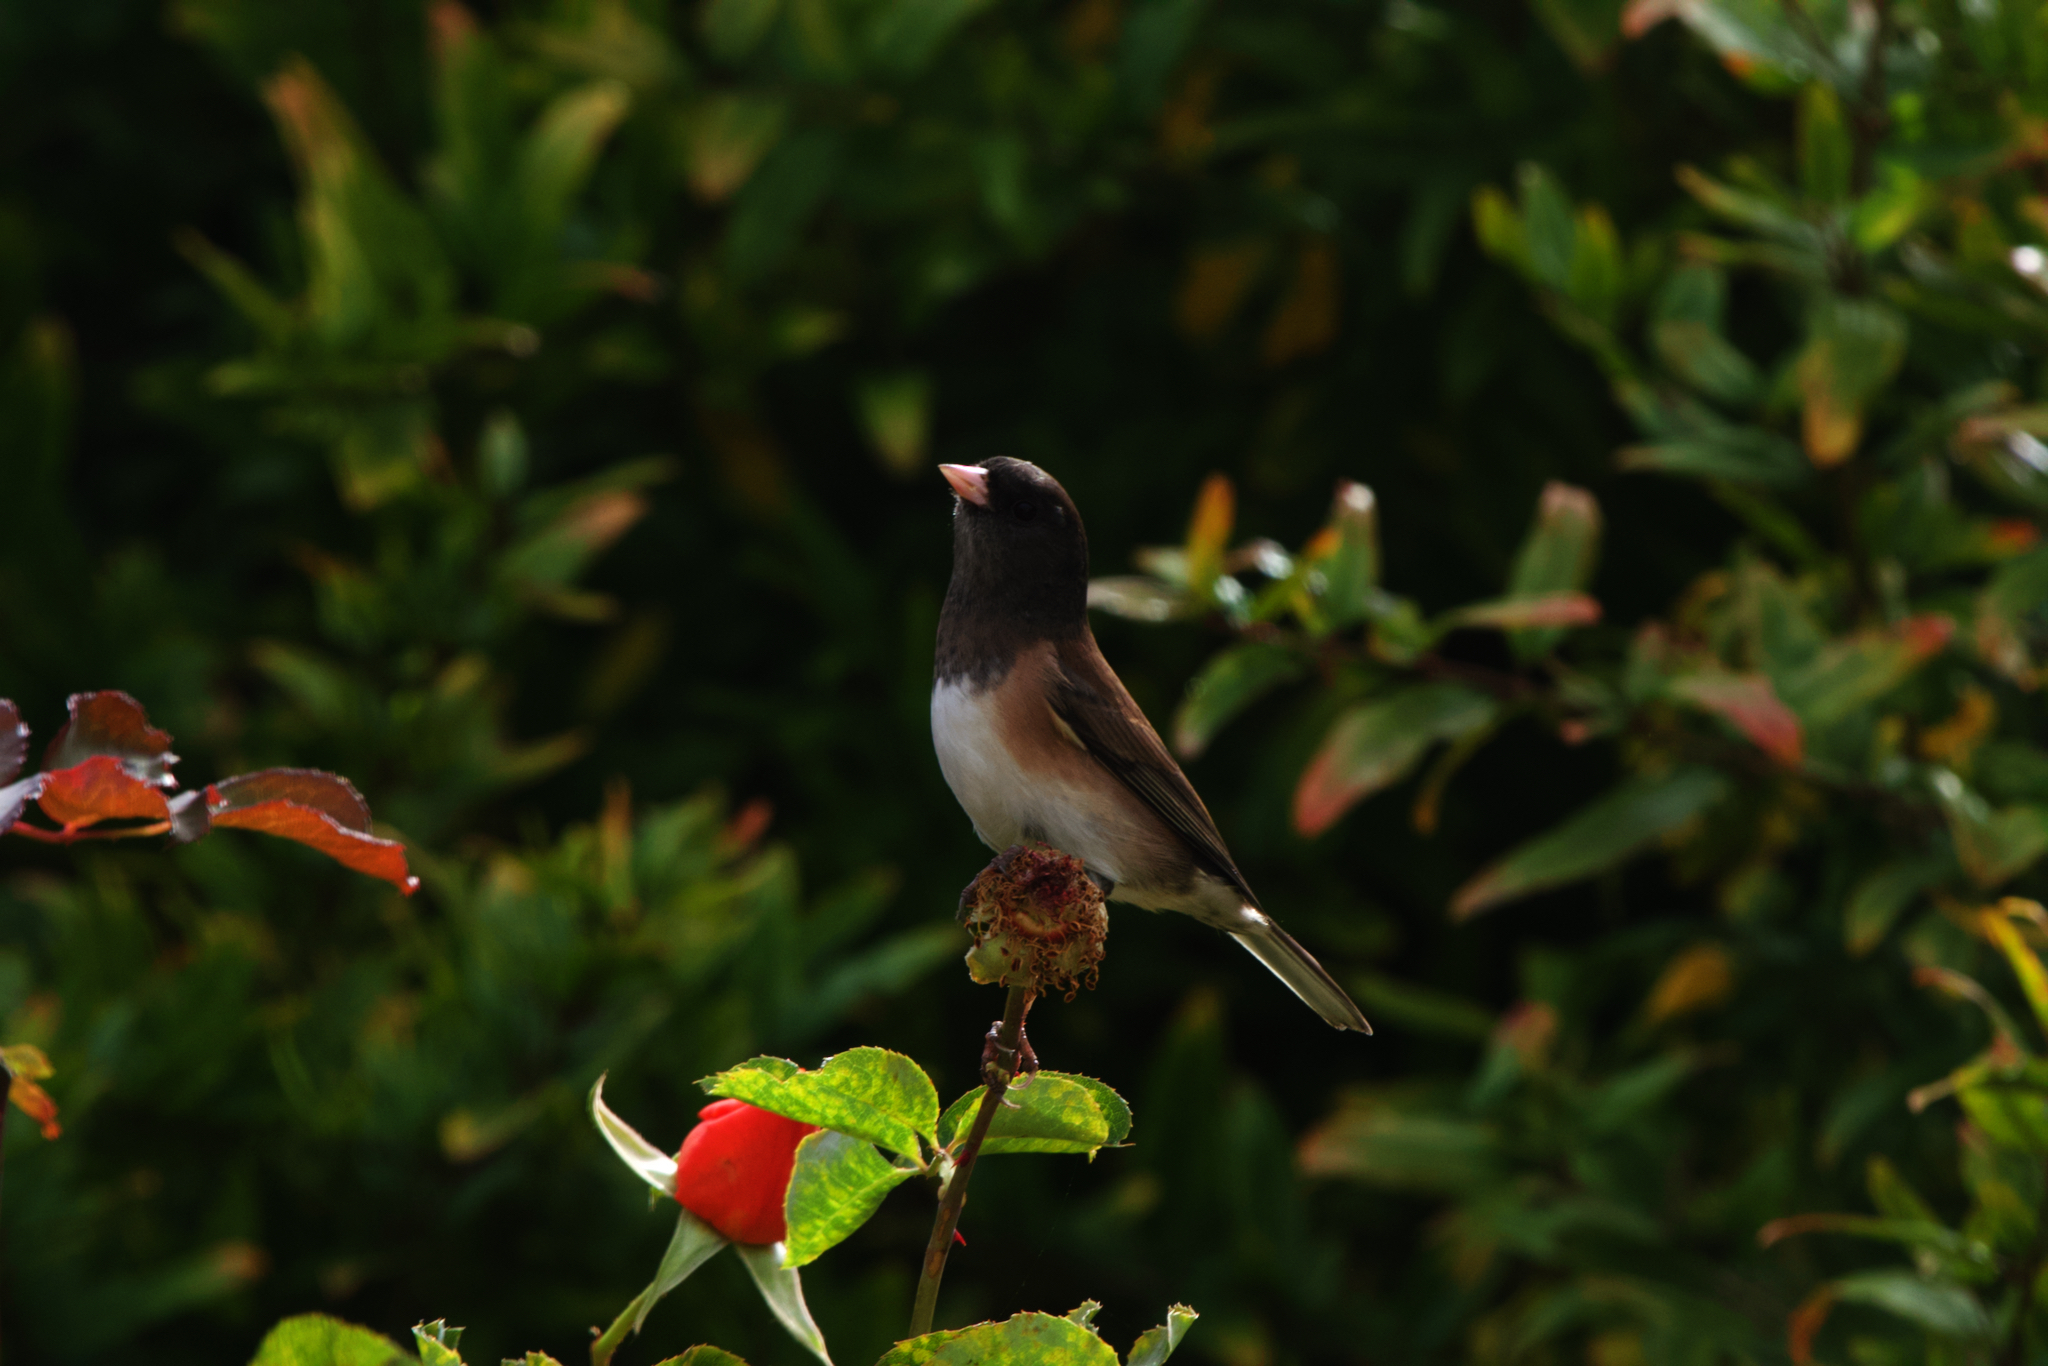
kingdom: Animalia
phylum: Chordata
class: Aves
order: Passeriformes
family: Passerellidae
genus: Junco
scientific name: Junco hyemalis
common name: Dark-eyed junco
